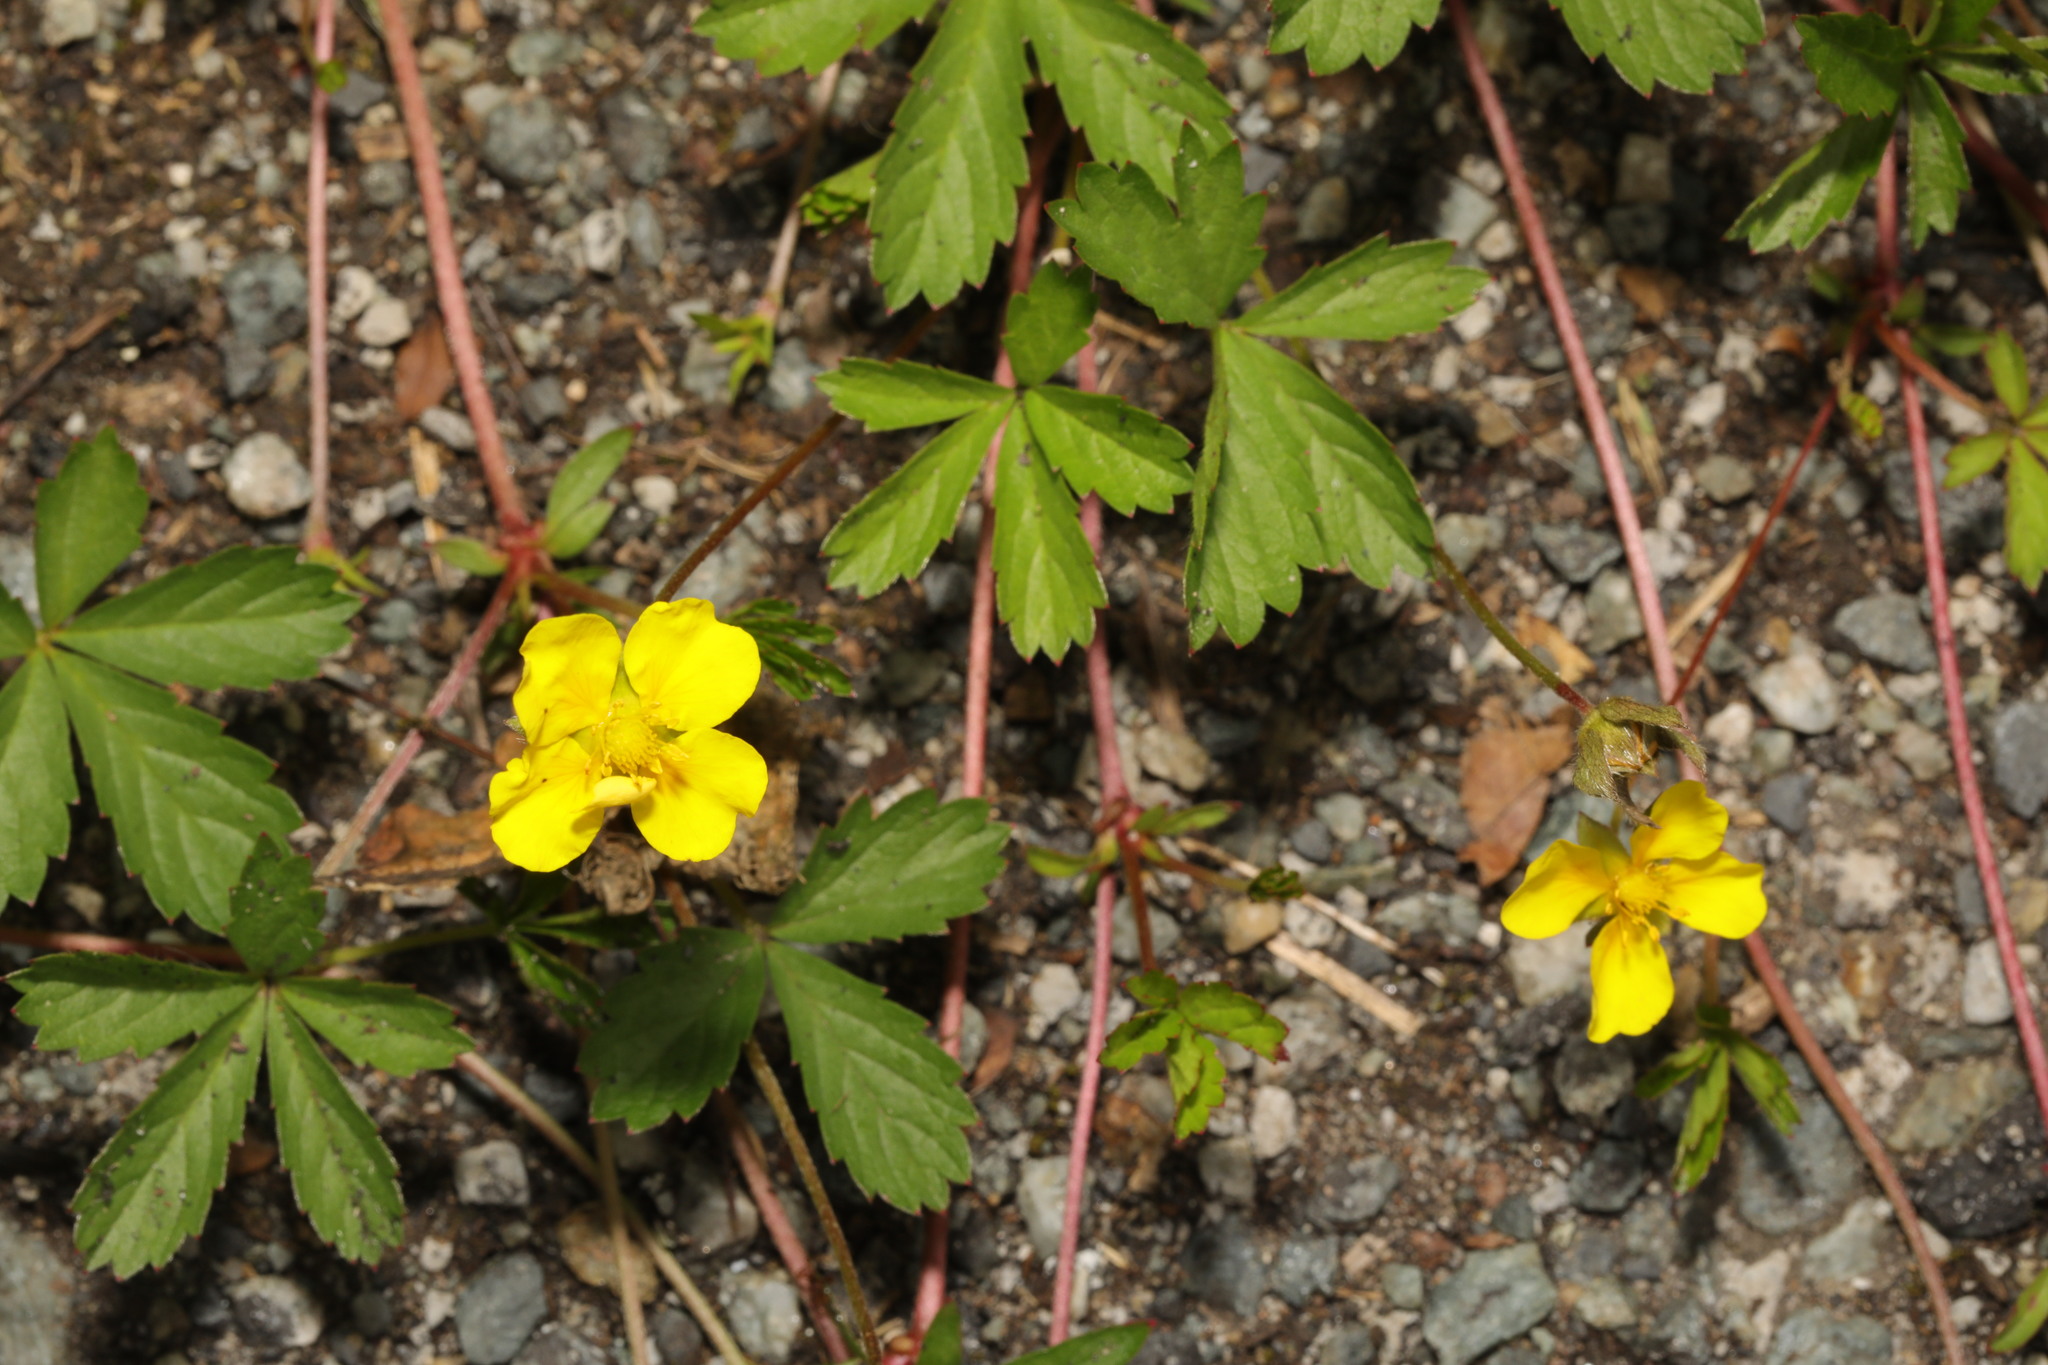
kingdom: Plantae
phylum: Tracheophyta
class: Magnoliopsida
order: Rosales
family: Rosaceae
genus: Potentilla
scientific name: Potentilla reptans
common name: Creeping cinquefoil
